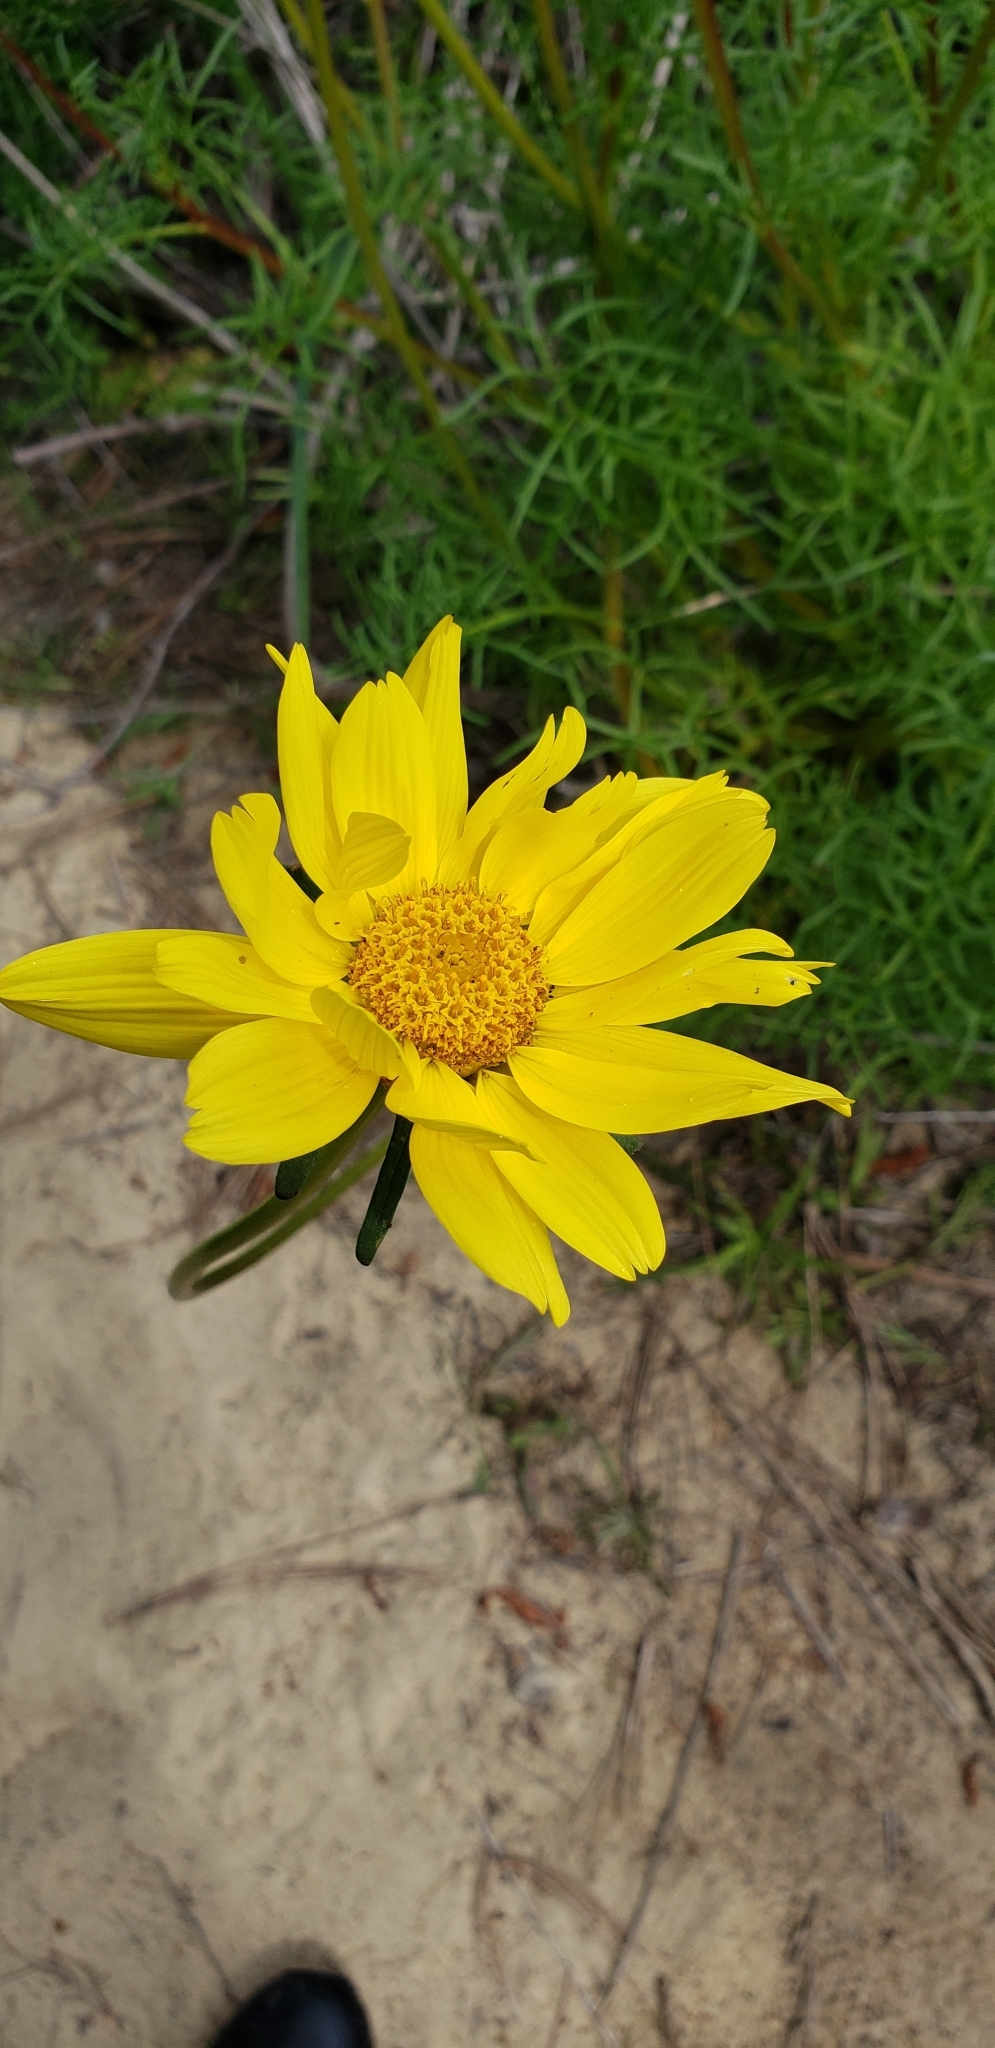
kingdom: Plantae
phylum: Tracheophyta
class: Magnoliopsida
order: Asterales
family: Asteraceae
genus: Coreopsis
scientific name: Coreopsis maritima
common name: Sea-dahlia
